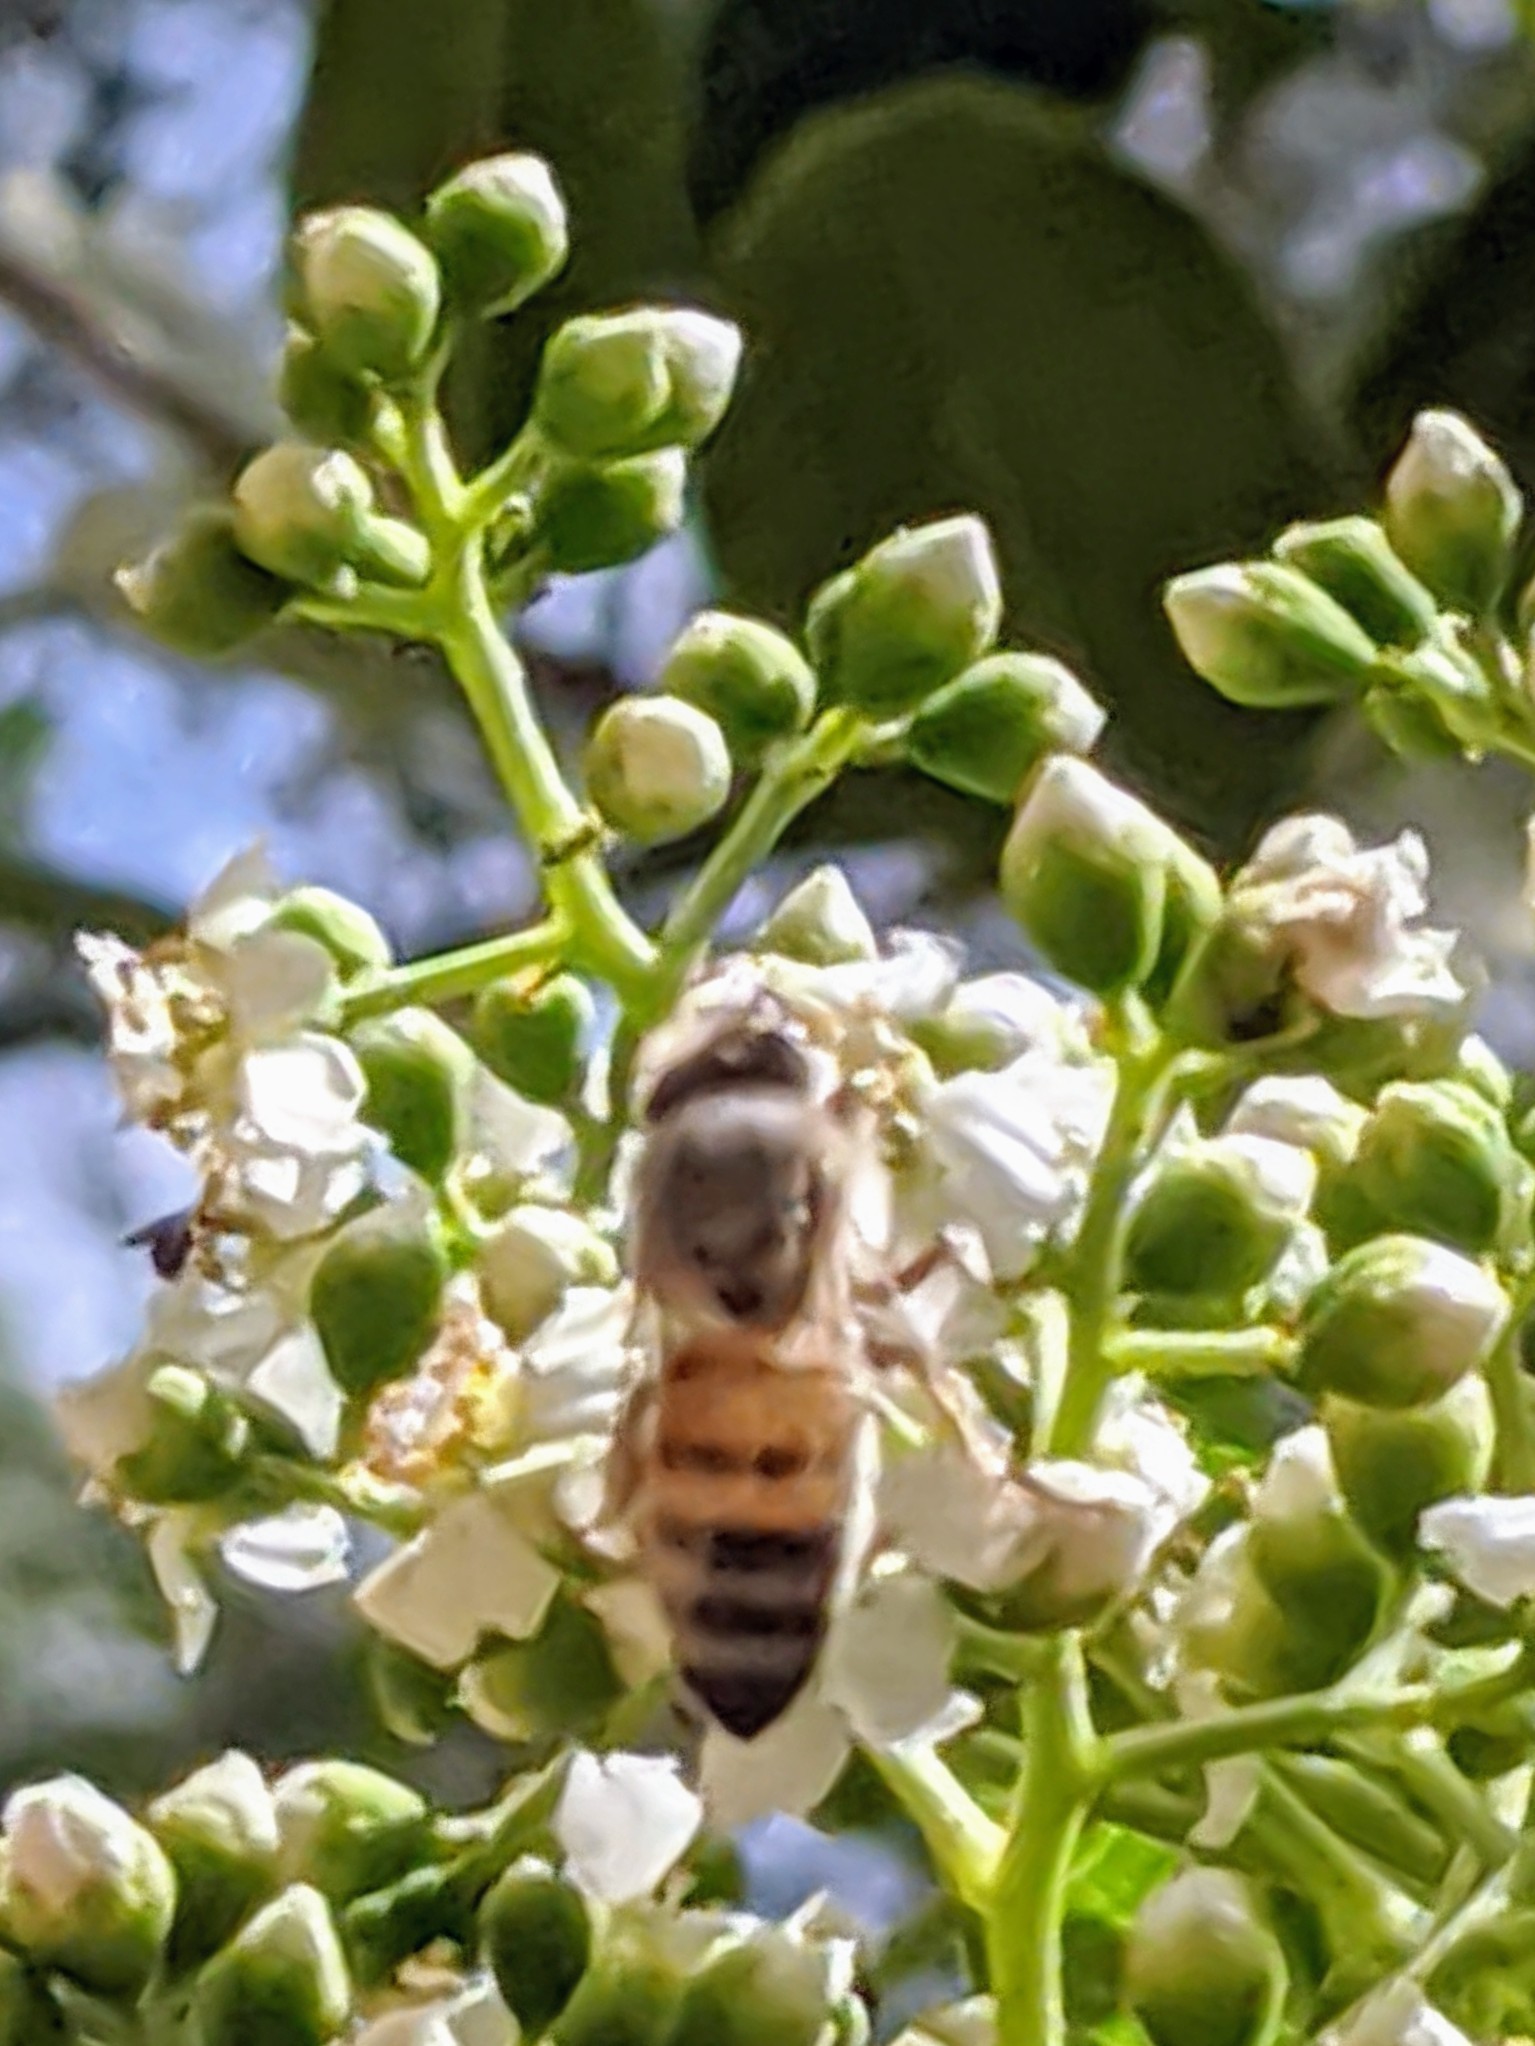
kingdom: Animalia
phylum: Arthropoda
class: Insecta
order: Hymenoptera
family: Apidae
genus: Apis
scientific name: Apis mellifera
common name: Honey bee
